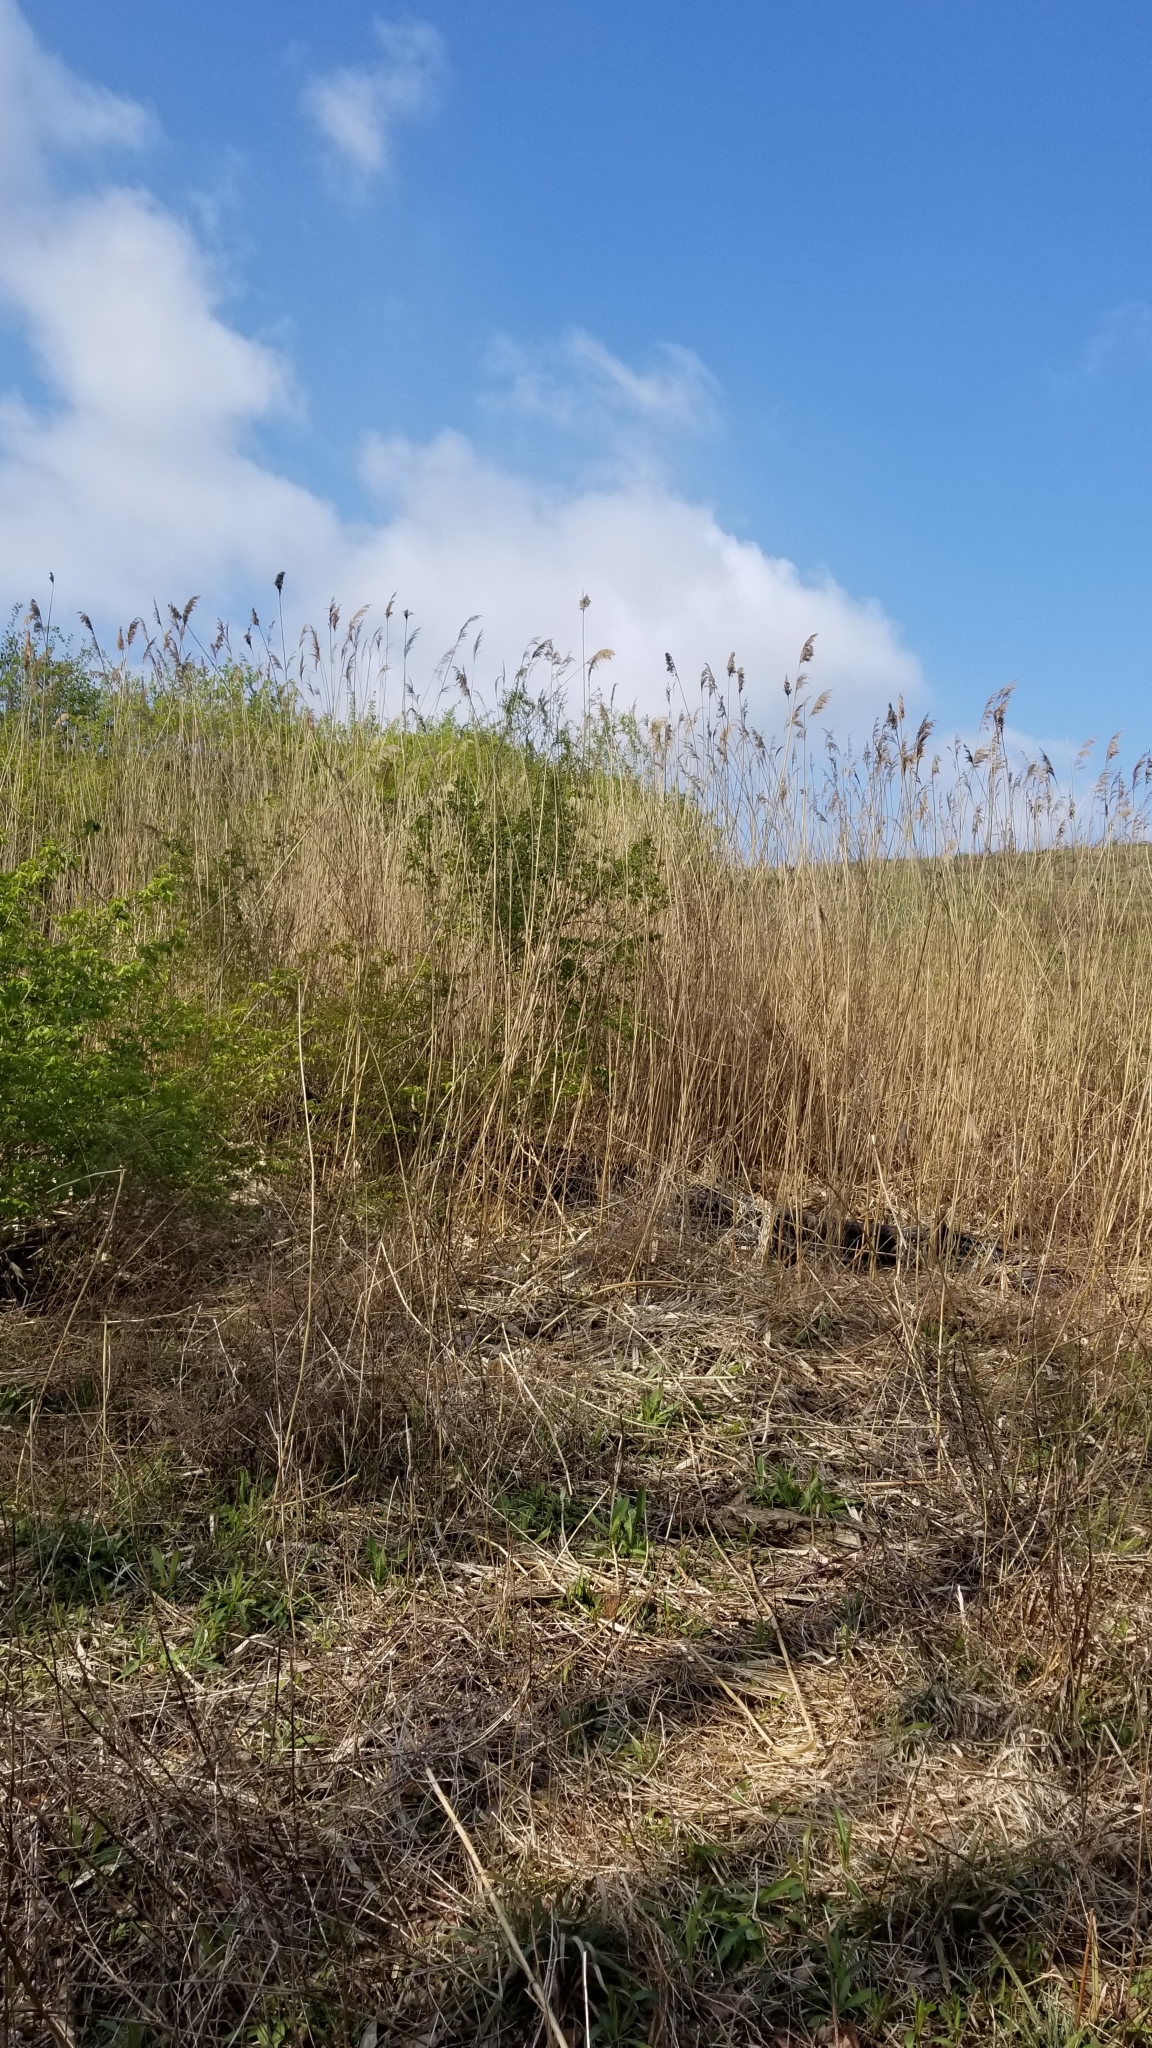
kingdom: Plantae
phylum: Tracheophyta
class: Liliopsida
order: Poales
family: Poaceae
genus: Phragmites
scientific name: Phragmites australis
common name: Common reed
